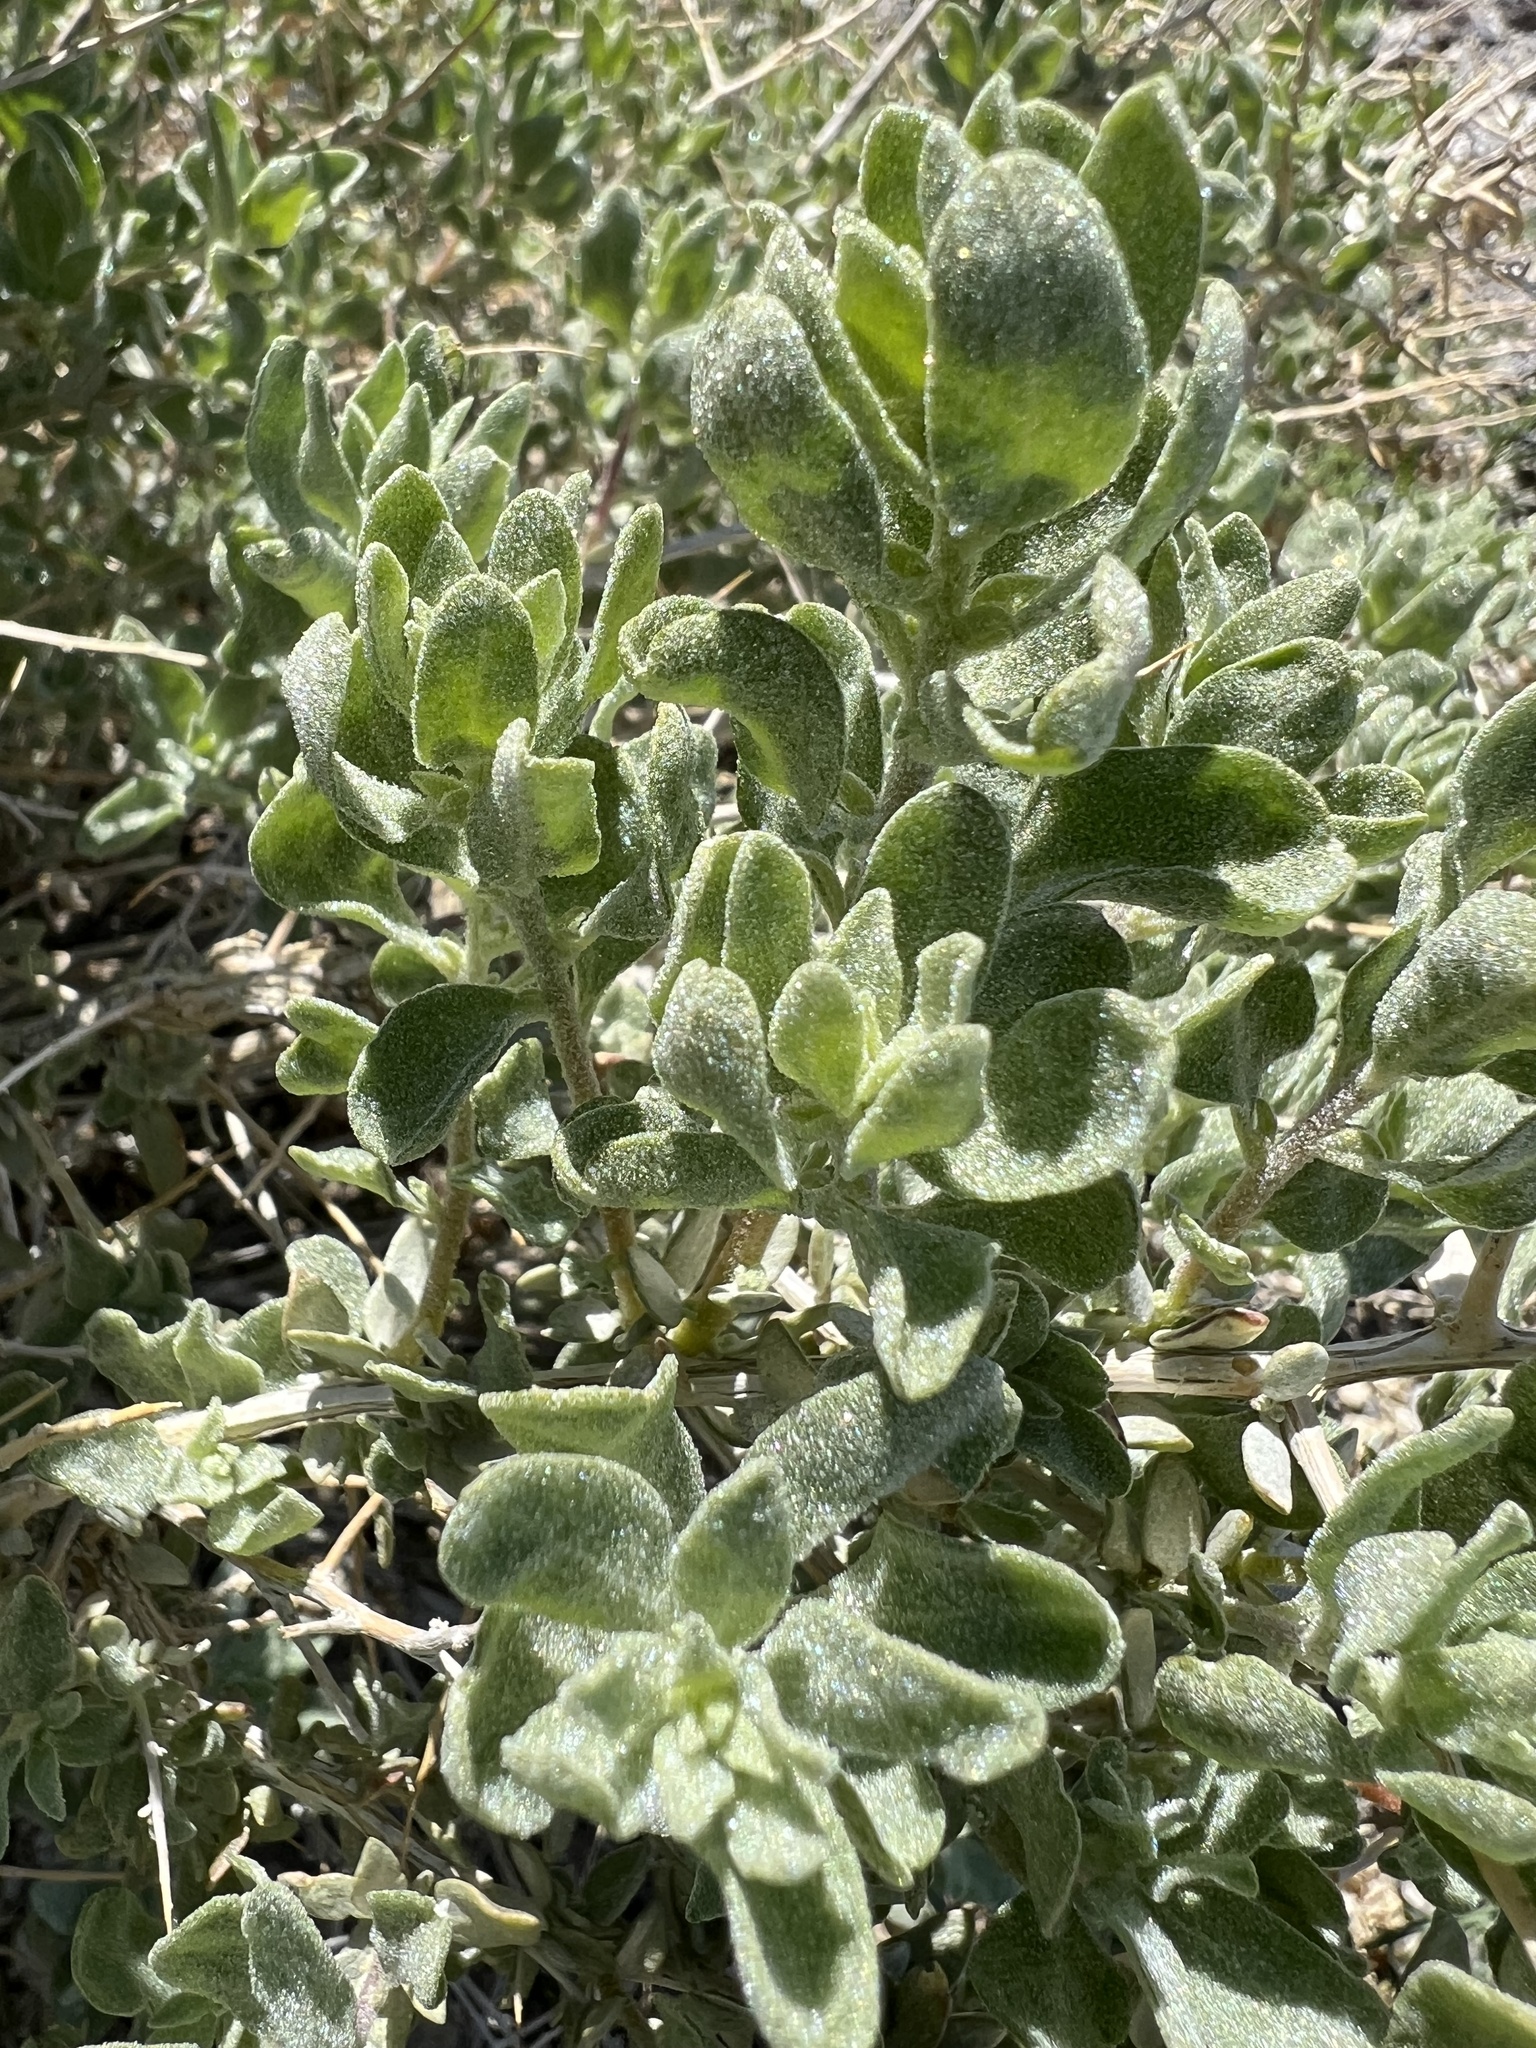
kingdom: Plantae
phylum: Tracheophyta
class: Magnoliopsida
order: Caryophyllales
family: Amaranthaceae
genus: Atriplex
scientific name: Atriplex confertifolia
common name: Shadscale
